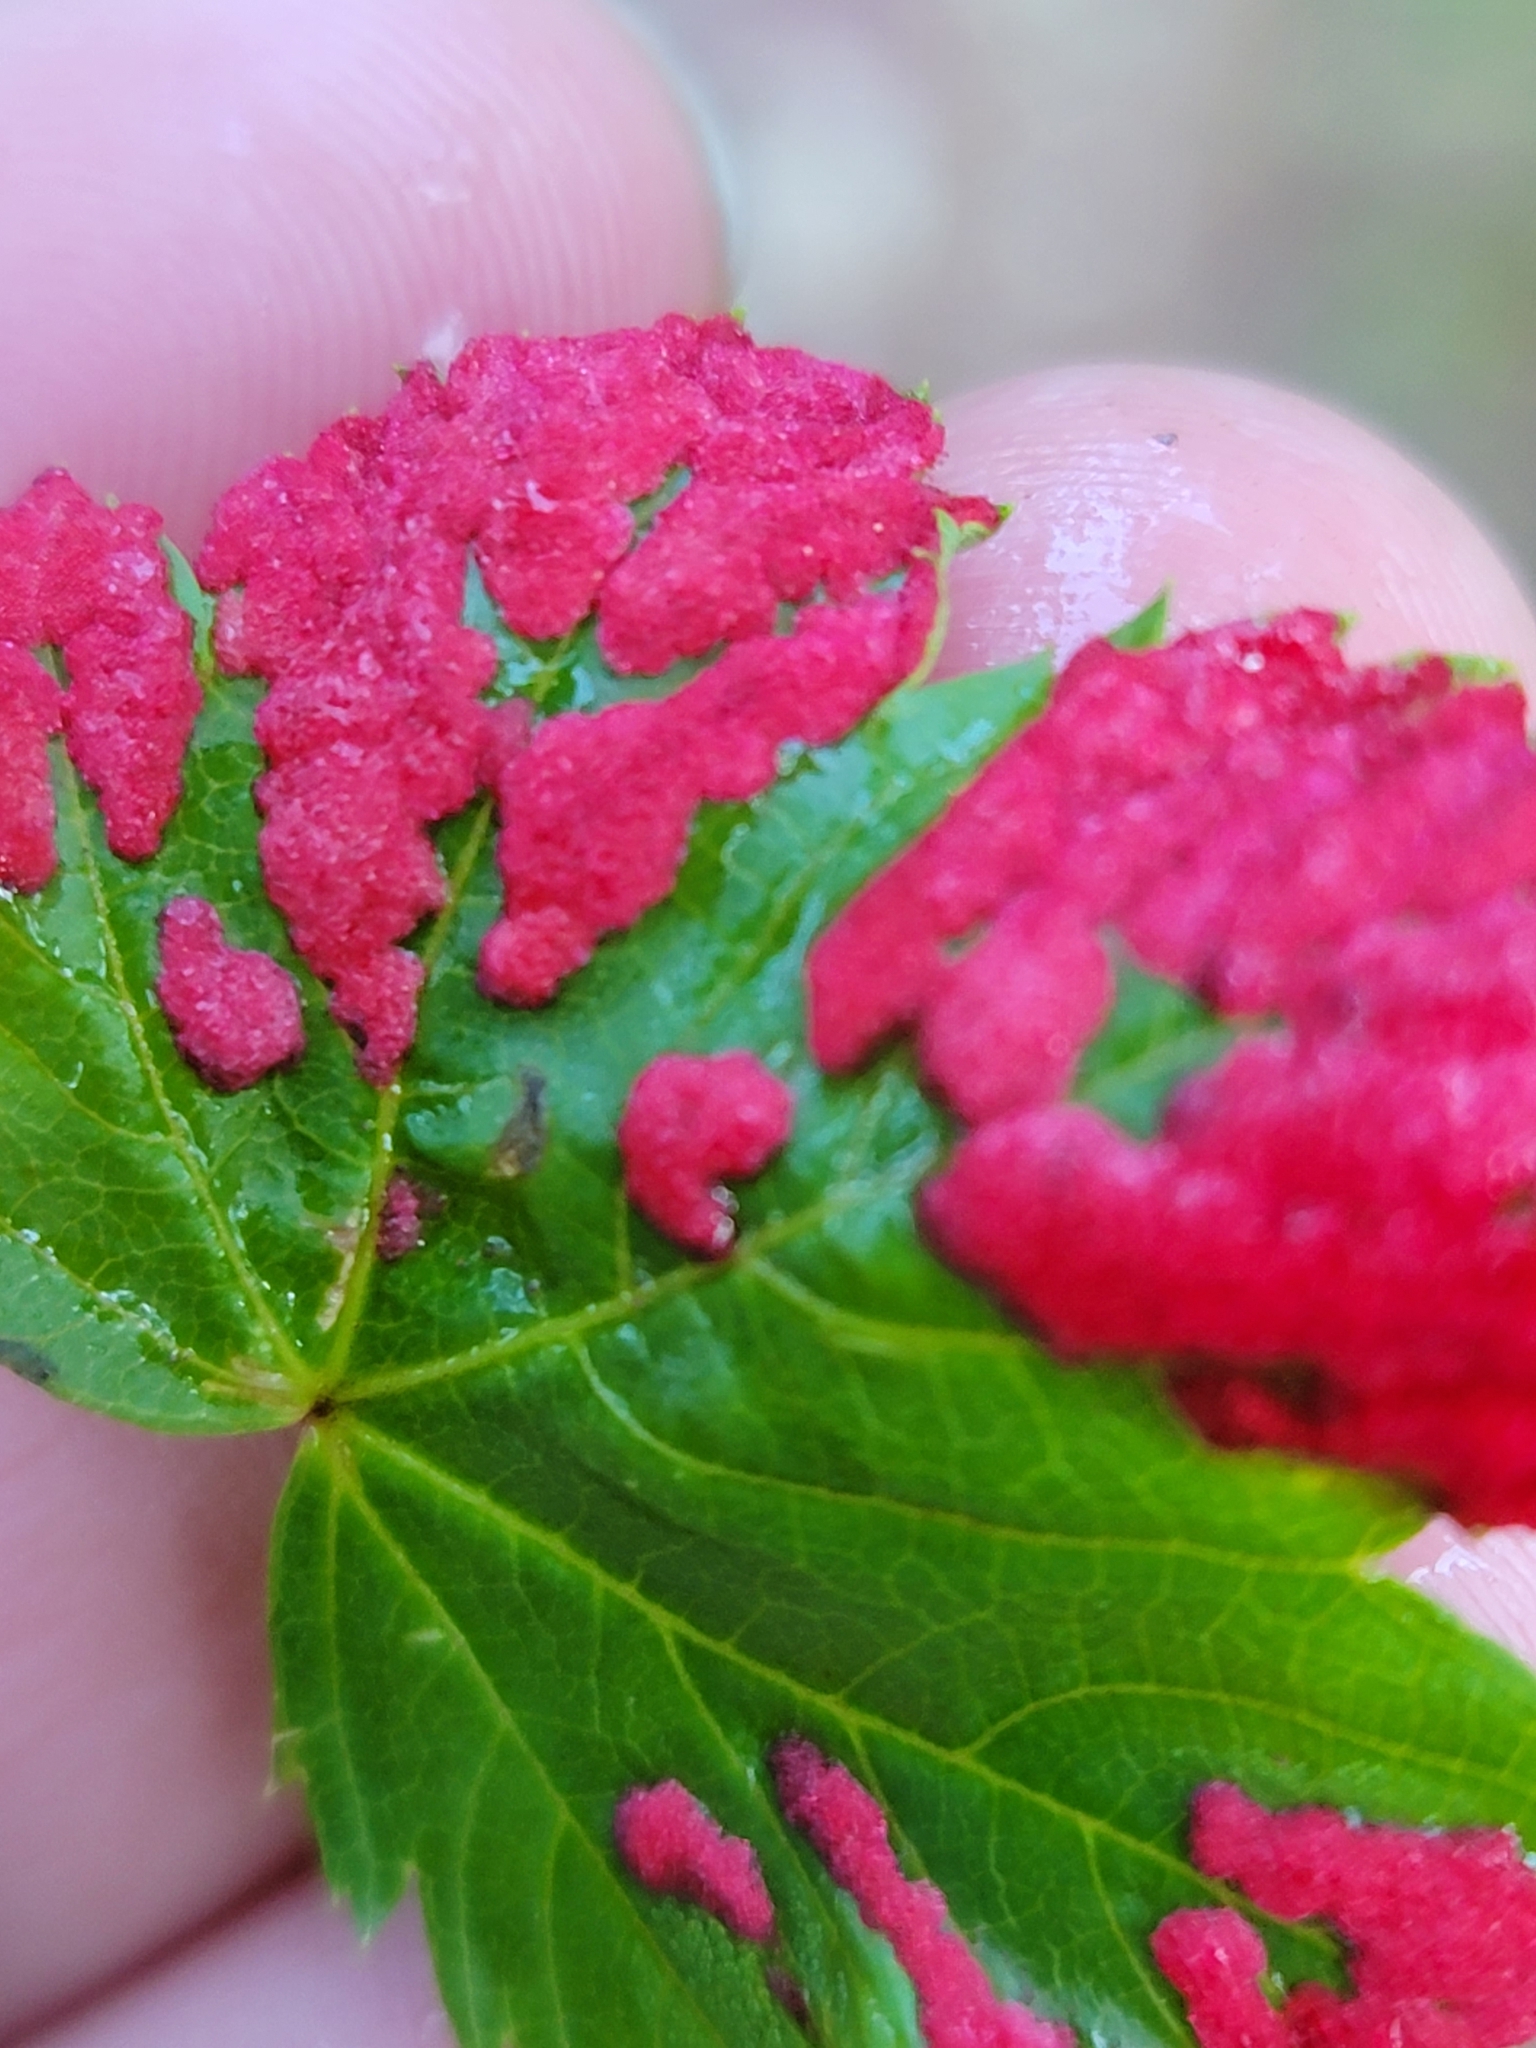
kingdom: Animalia
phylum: Arthropoda
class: Arachnida
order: Trombidiformes
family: Eriophyidae
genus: Aceria
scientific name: Aceria
